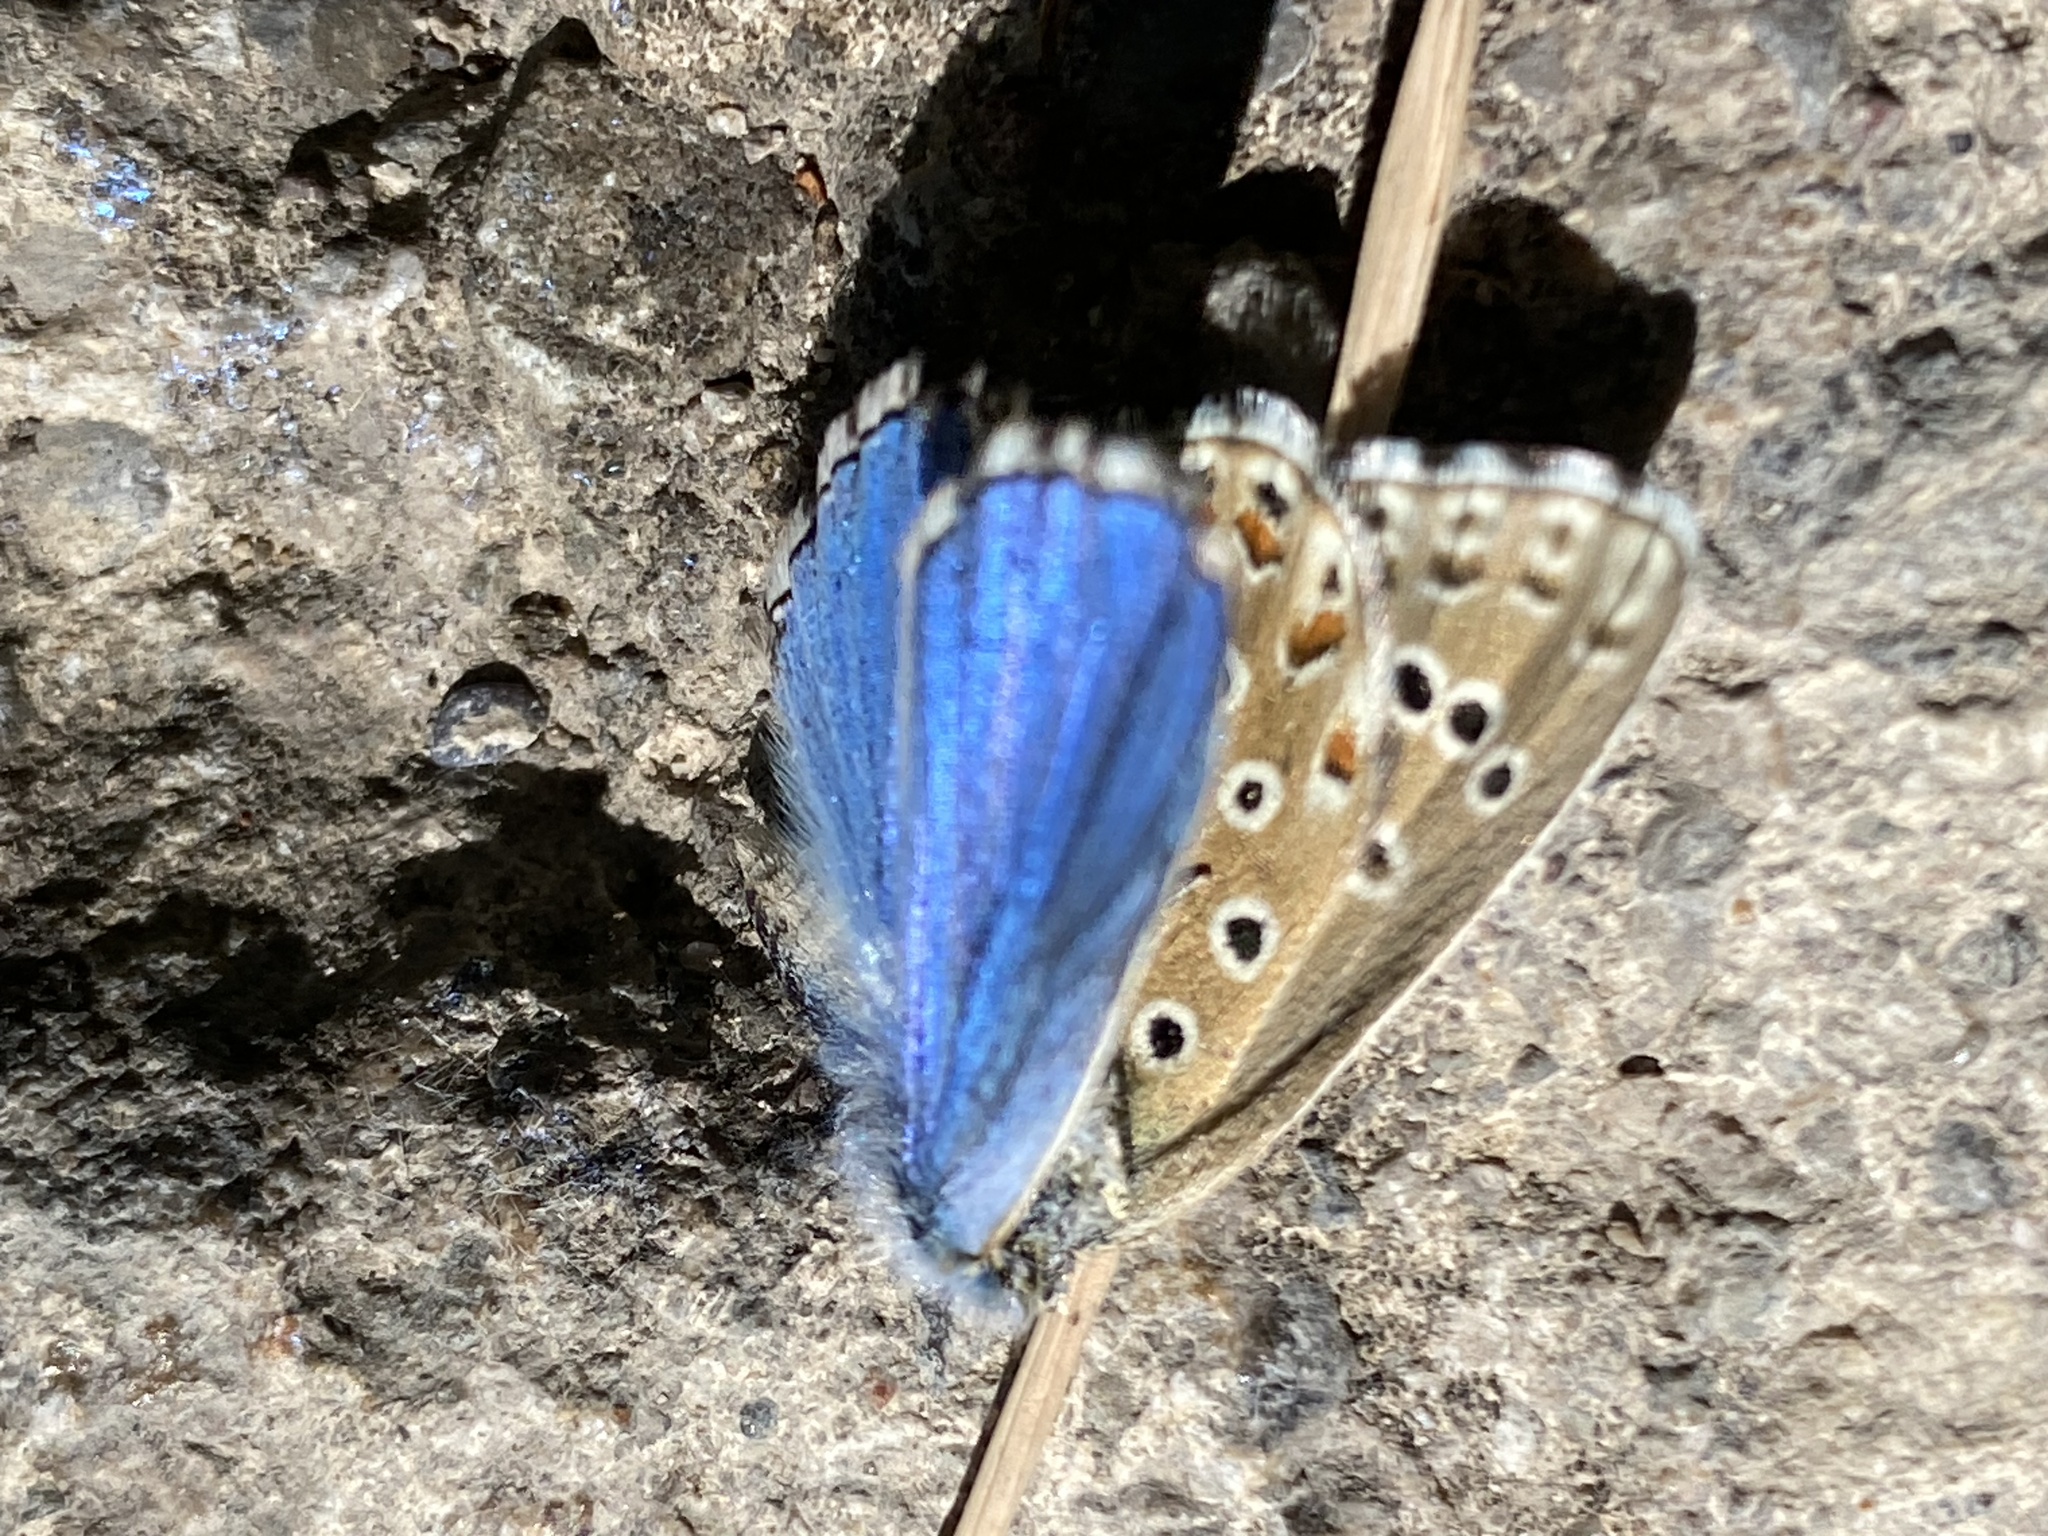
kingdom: Animalia
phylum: Arthropoda
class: Insecta
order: Lepidoptera
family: Lycaenidae
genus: Lysandra
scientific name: Lysandra bellargus
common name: Adonis blue
